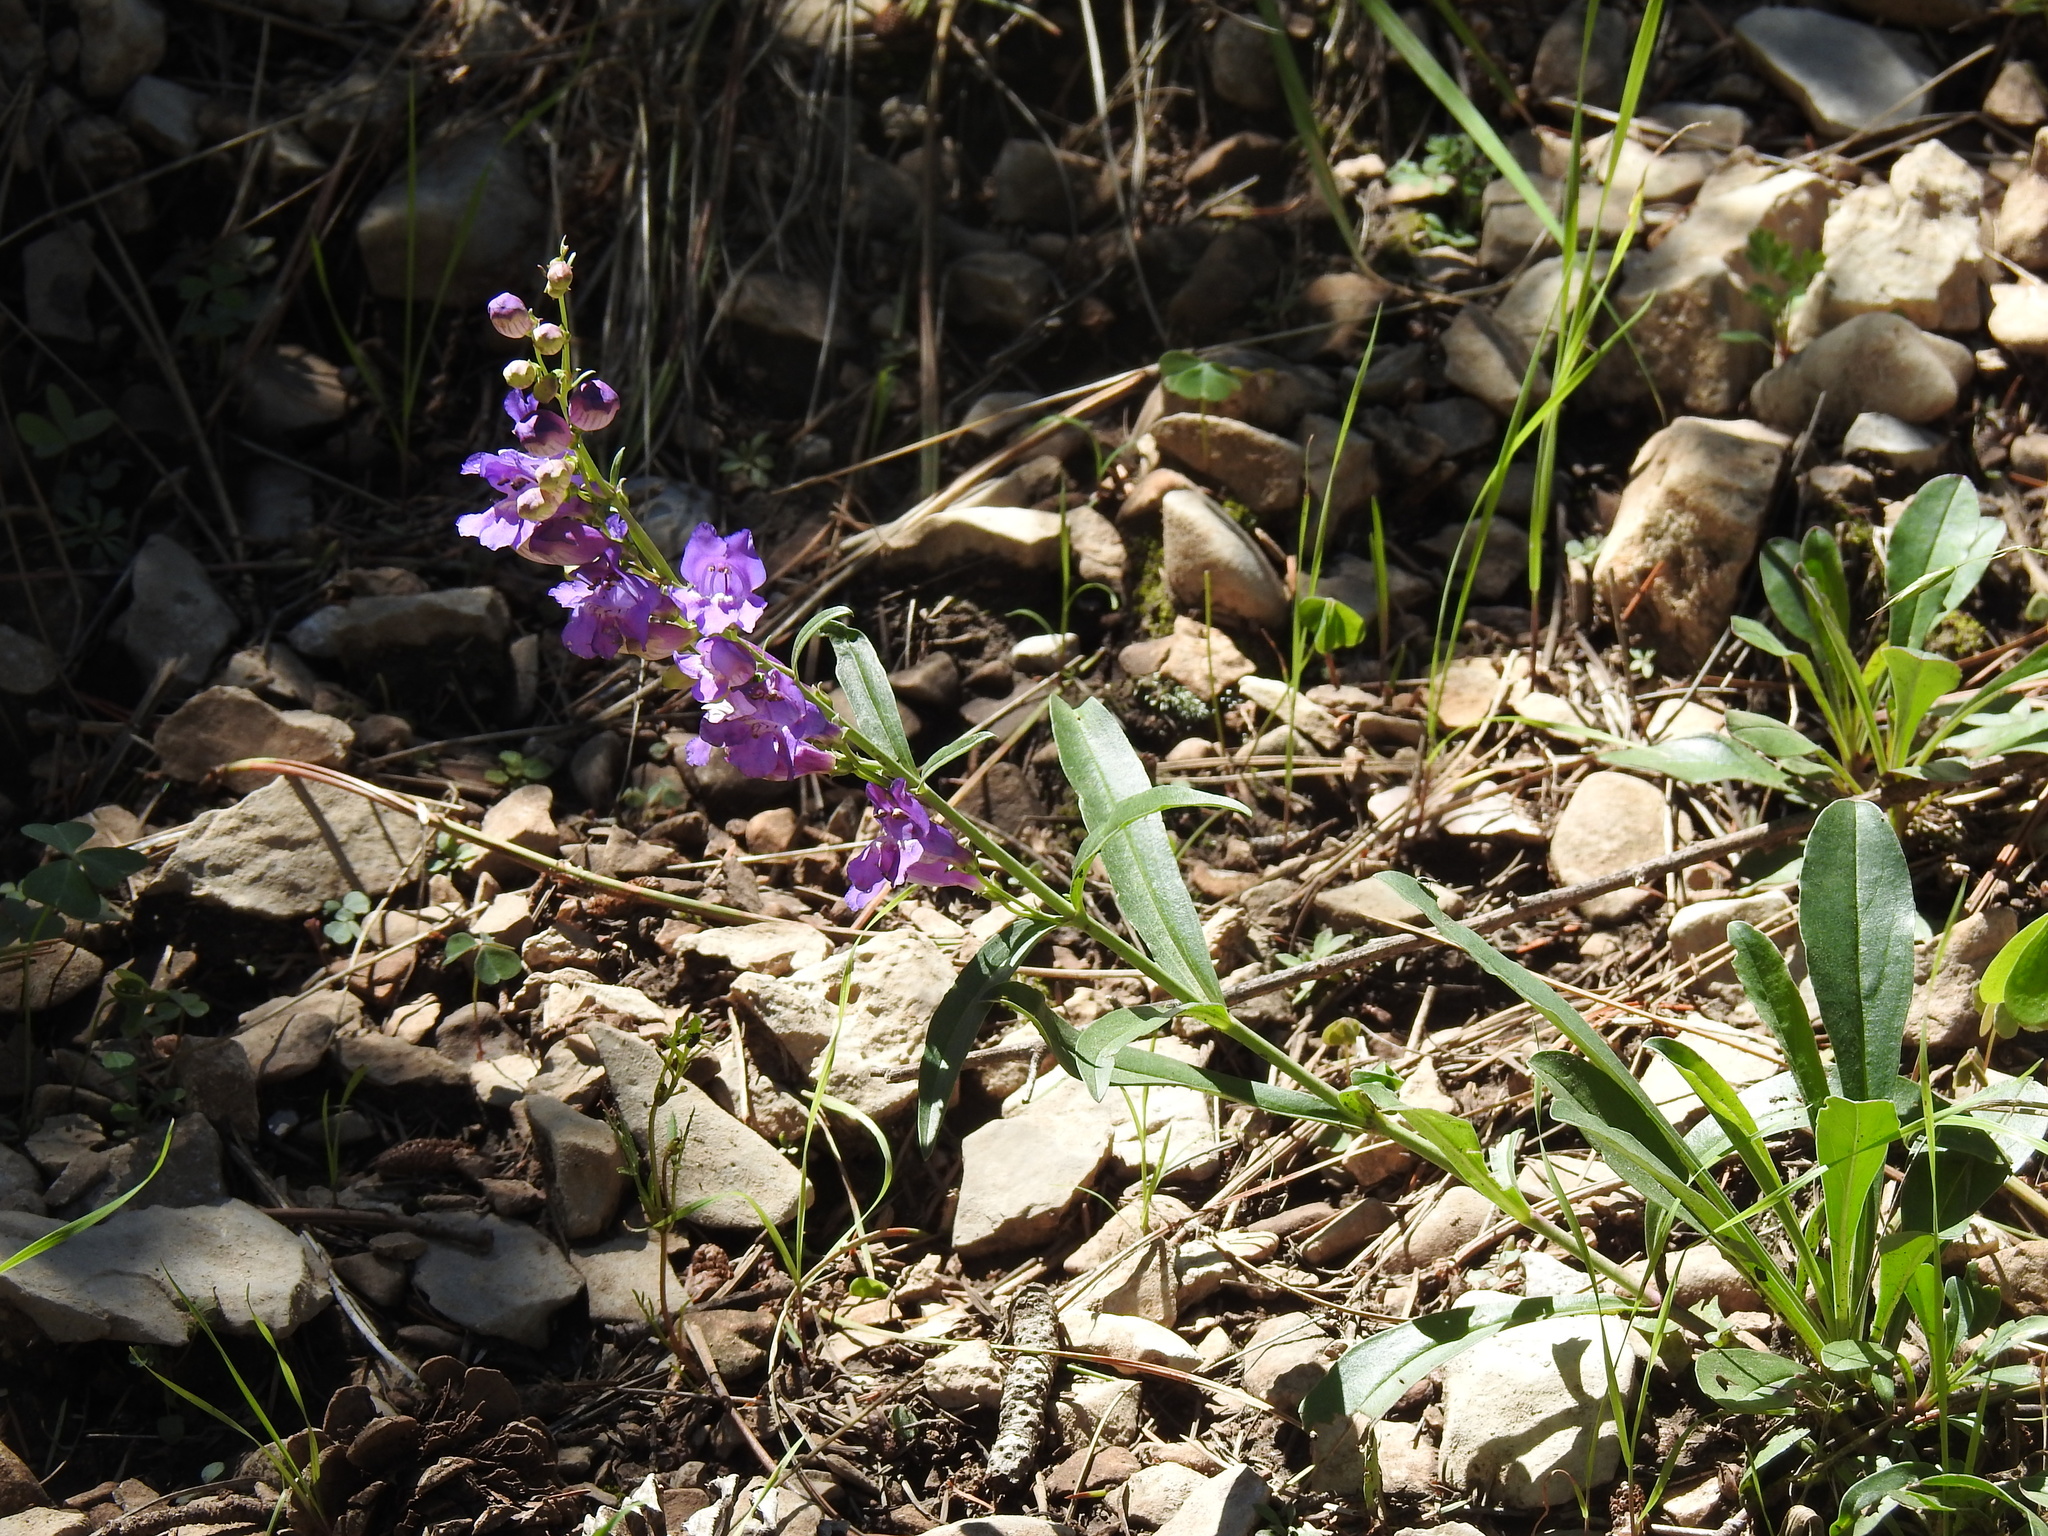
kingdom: Plantae
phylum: Tracheophyta
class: Magnoliopsida
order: Lamiales
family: Plantaginaceae
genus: Penstemon
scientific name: Penstemon neomexicanus
